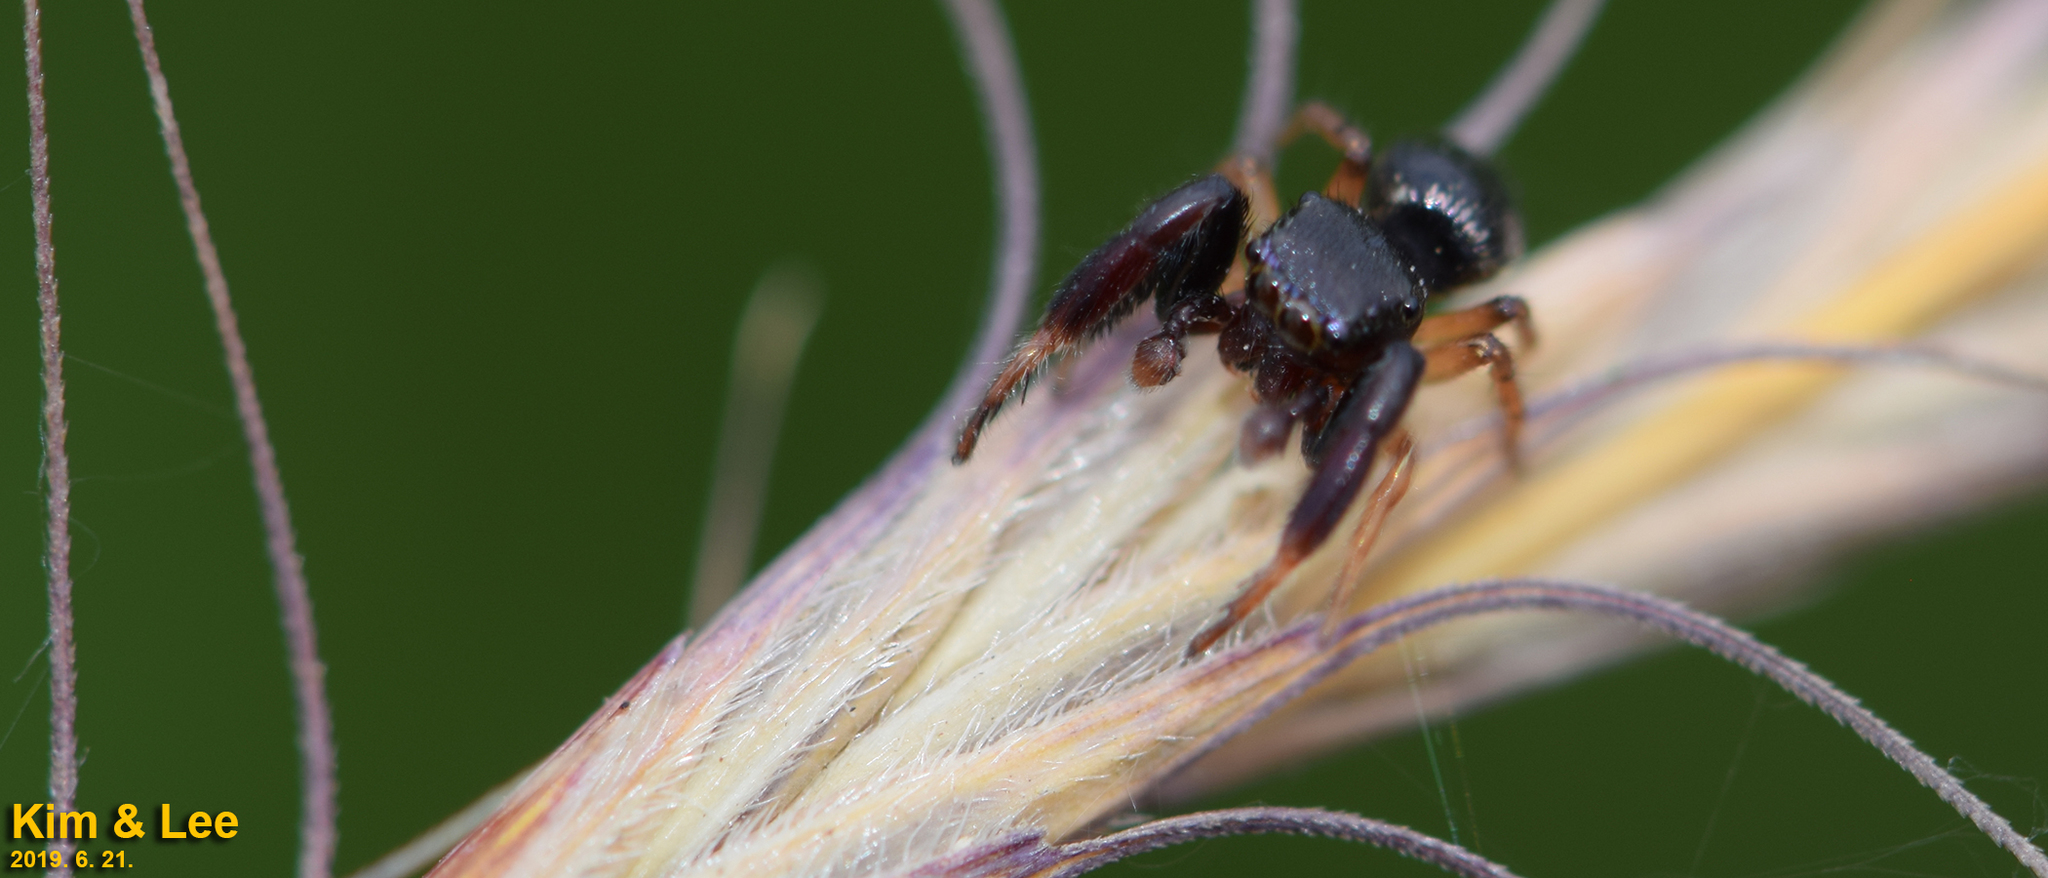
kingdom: Animalia
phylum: Arthropoda
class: Arachnida
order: Araneae
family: Salticidae
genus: Harmochirus
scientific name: Harmochirus brachiatus
